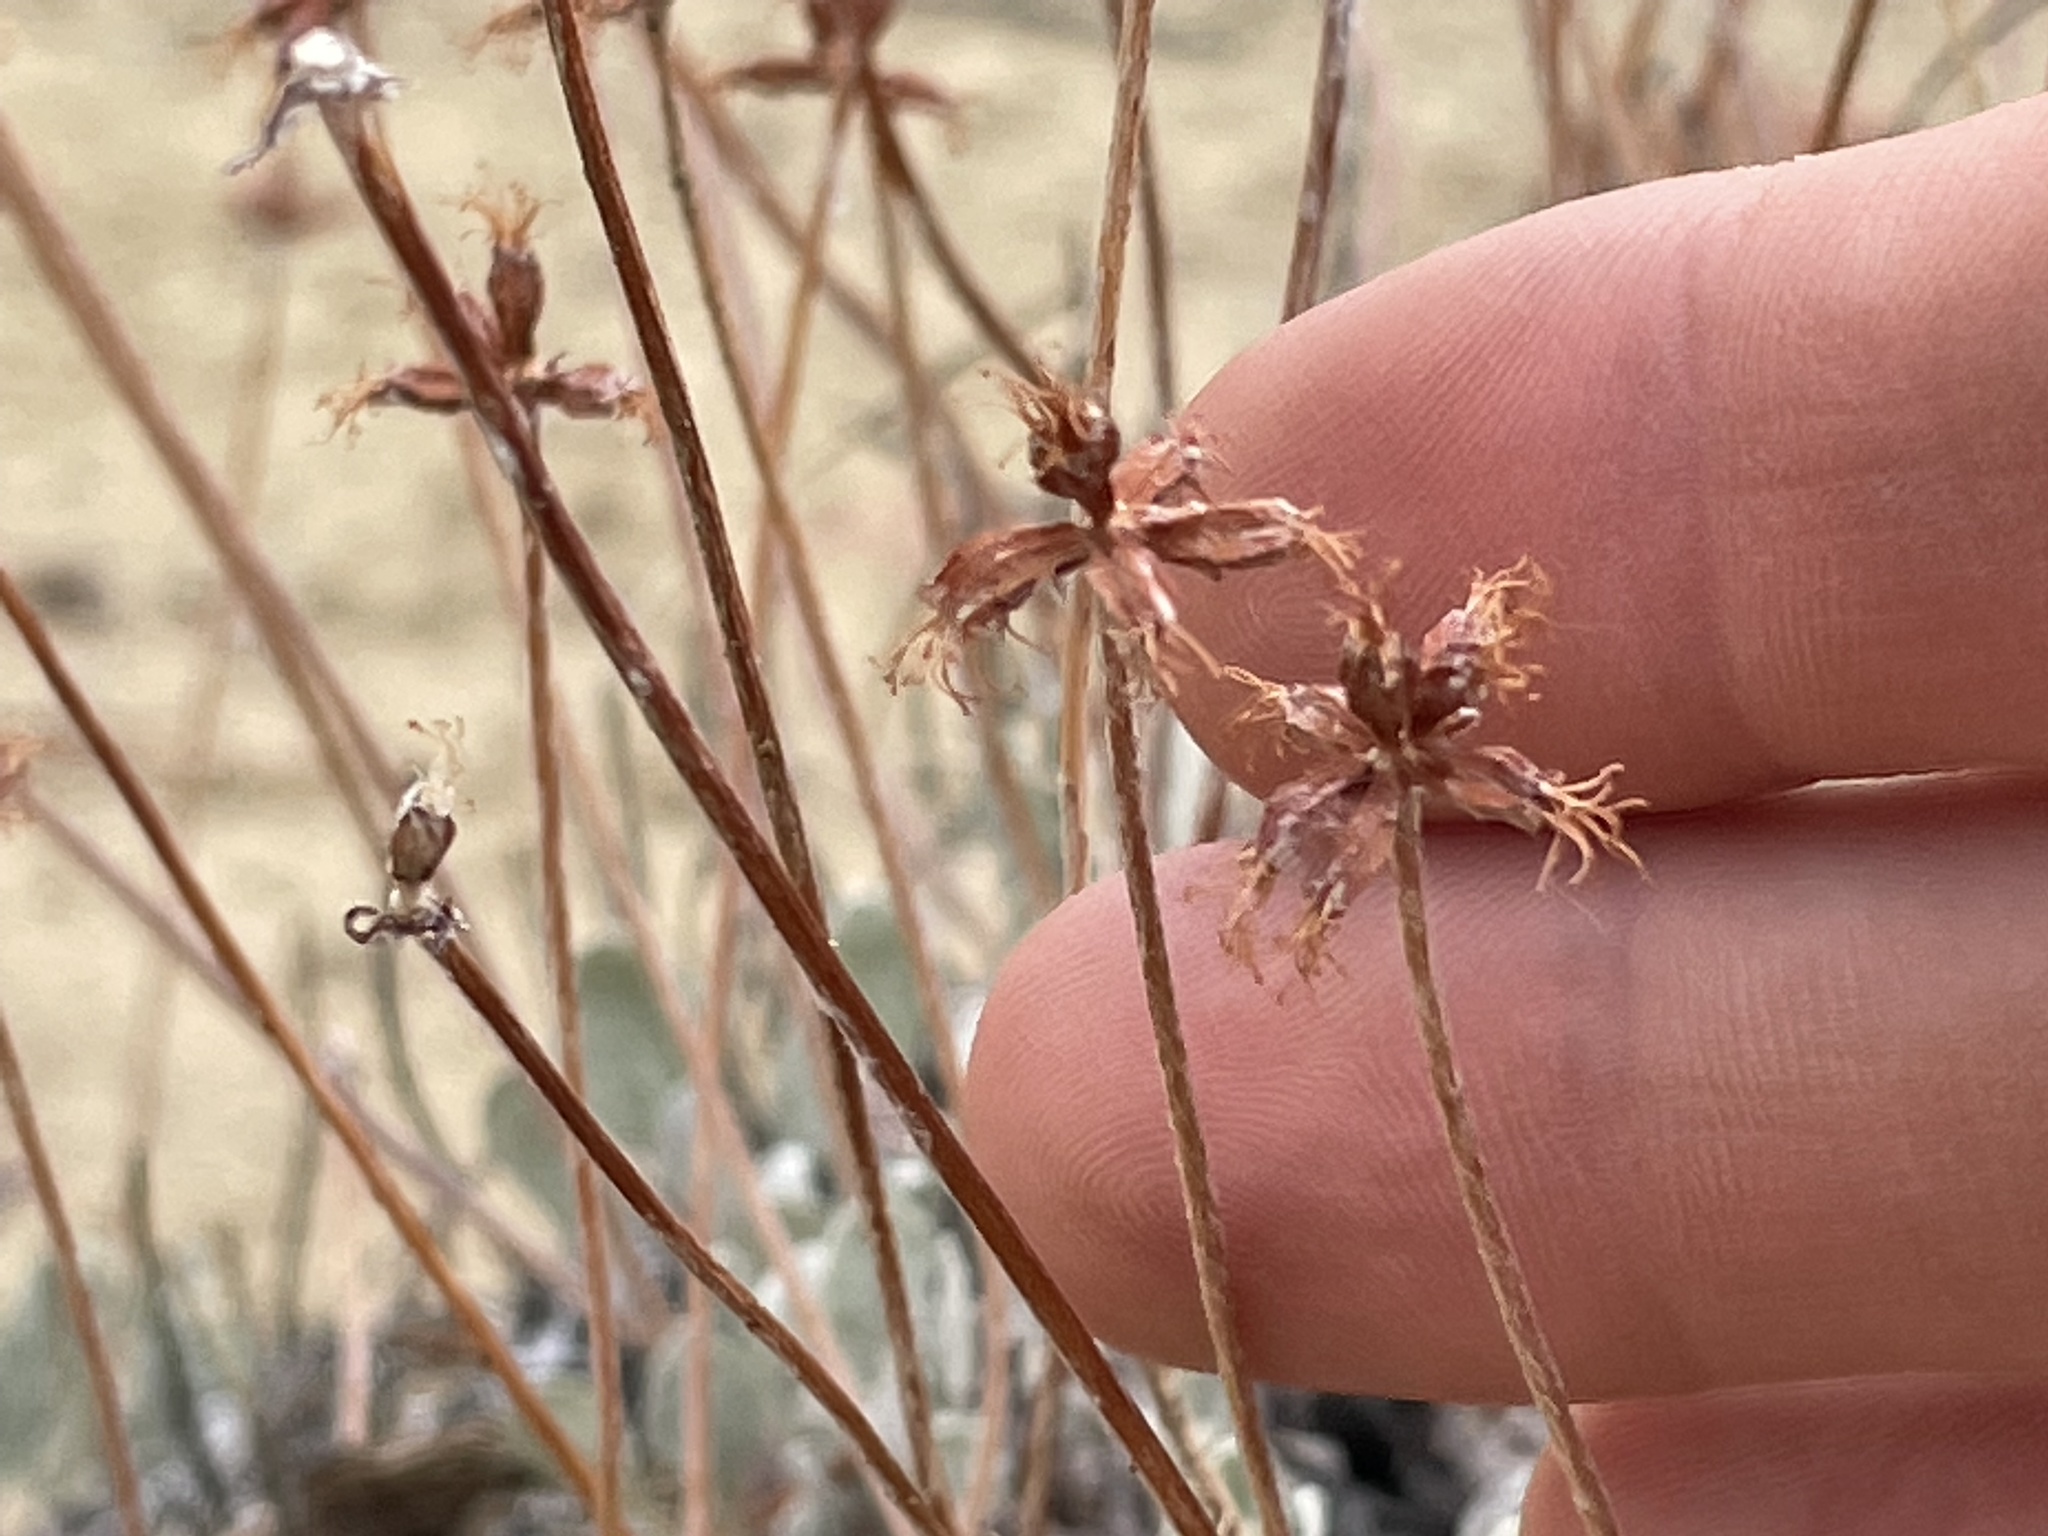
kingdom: Plantae
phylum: Tracheophyta
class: Magnoliopsida
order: Caryophyllales
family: Polygonaceae
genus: Eriogonum
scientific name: Eriogonum jamesii
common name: Antelope-sage
